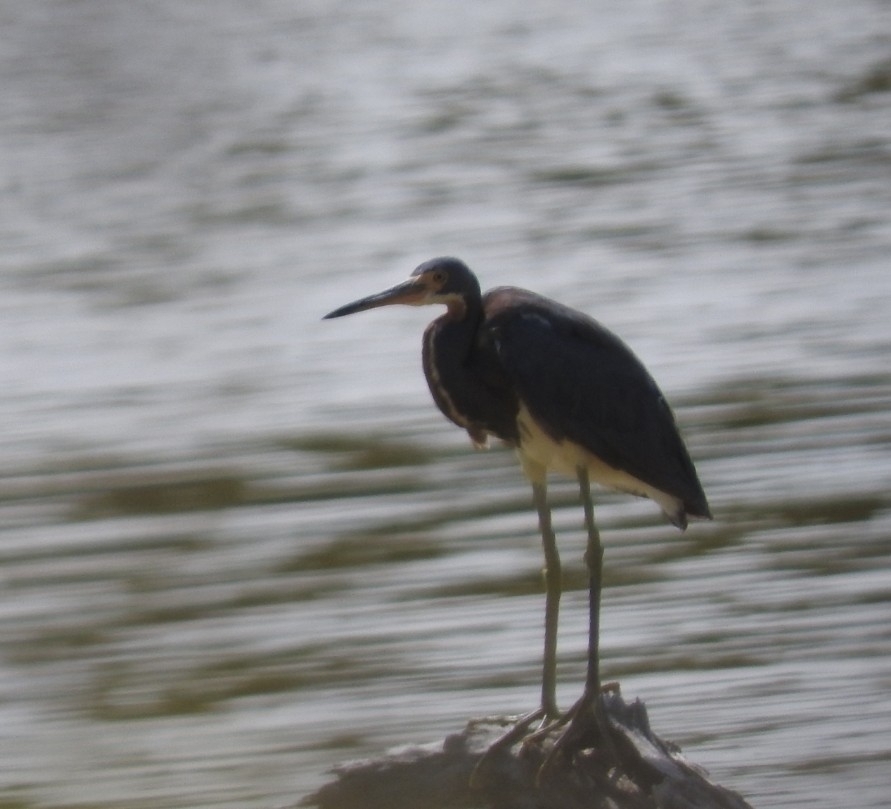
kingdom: Animalia
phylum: Chordata
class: Aves
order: Pelecaniformes
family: Ardeidae
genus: Egretta
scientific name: Egretta tricolor
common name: Tricolored heron
